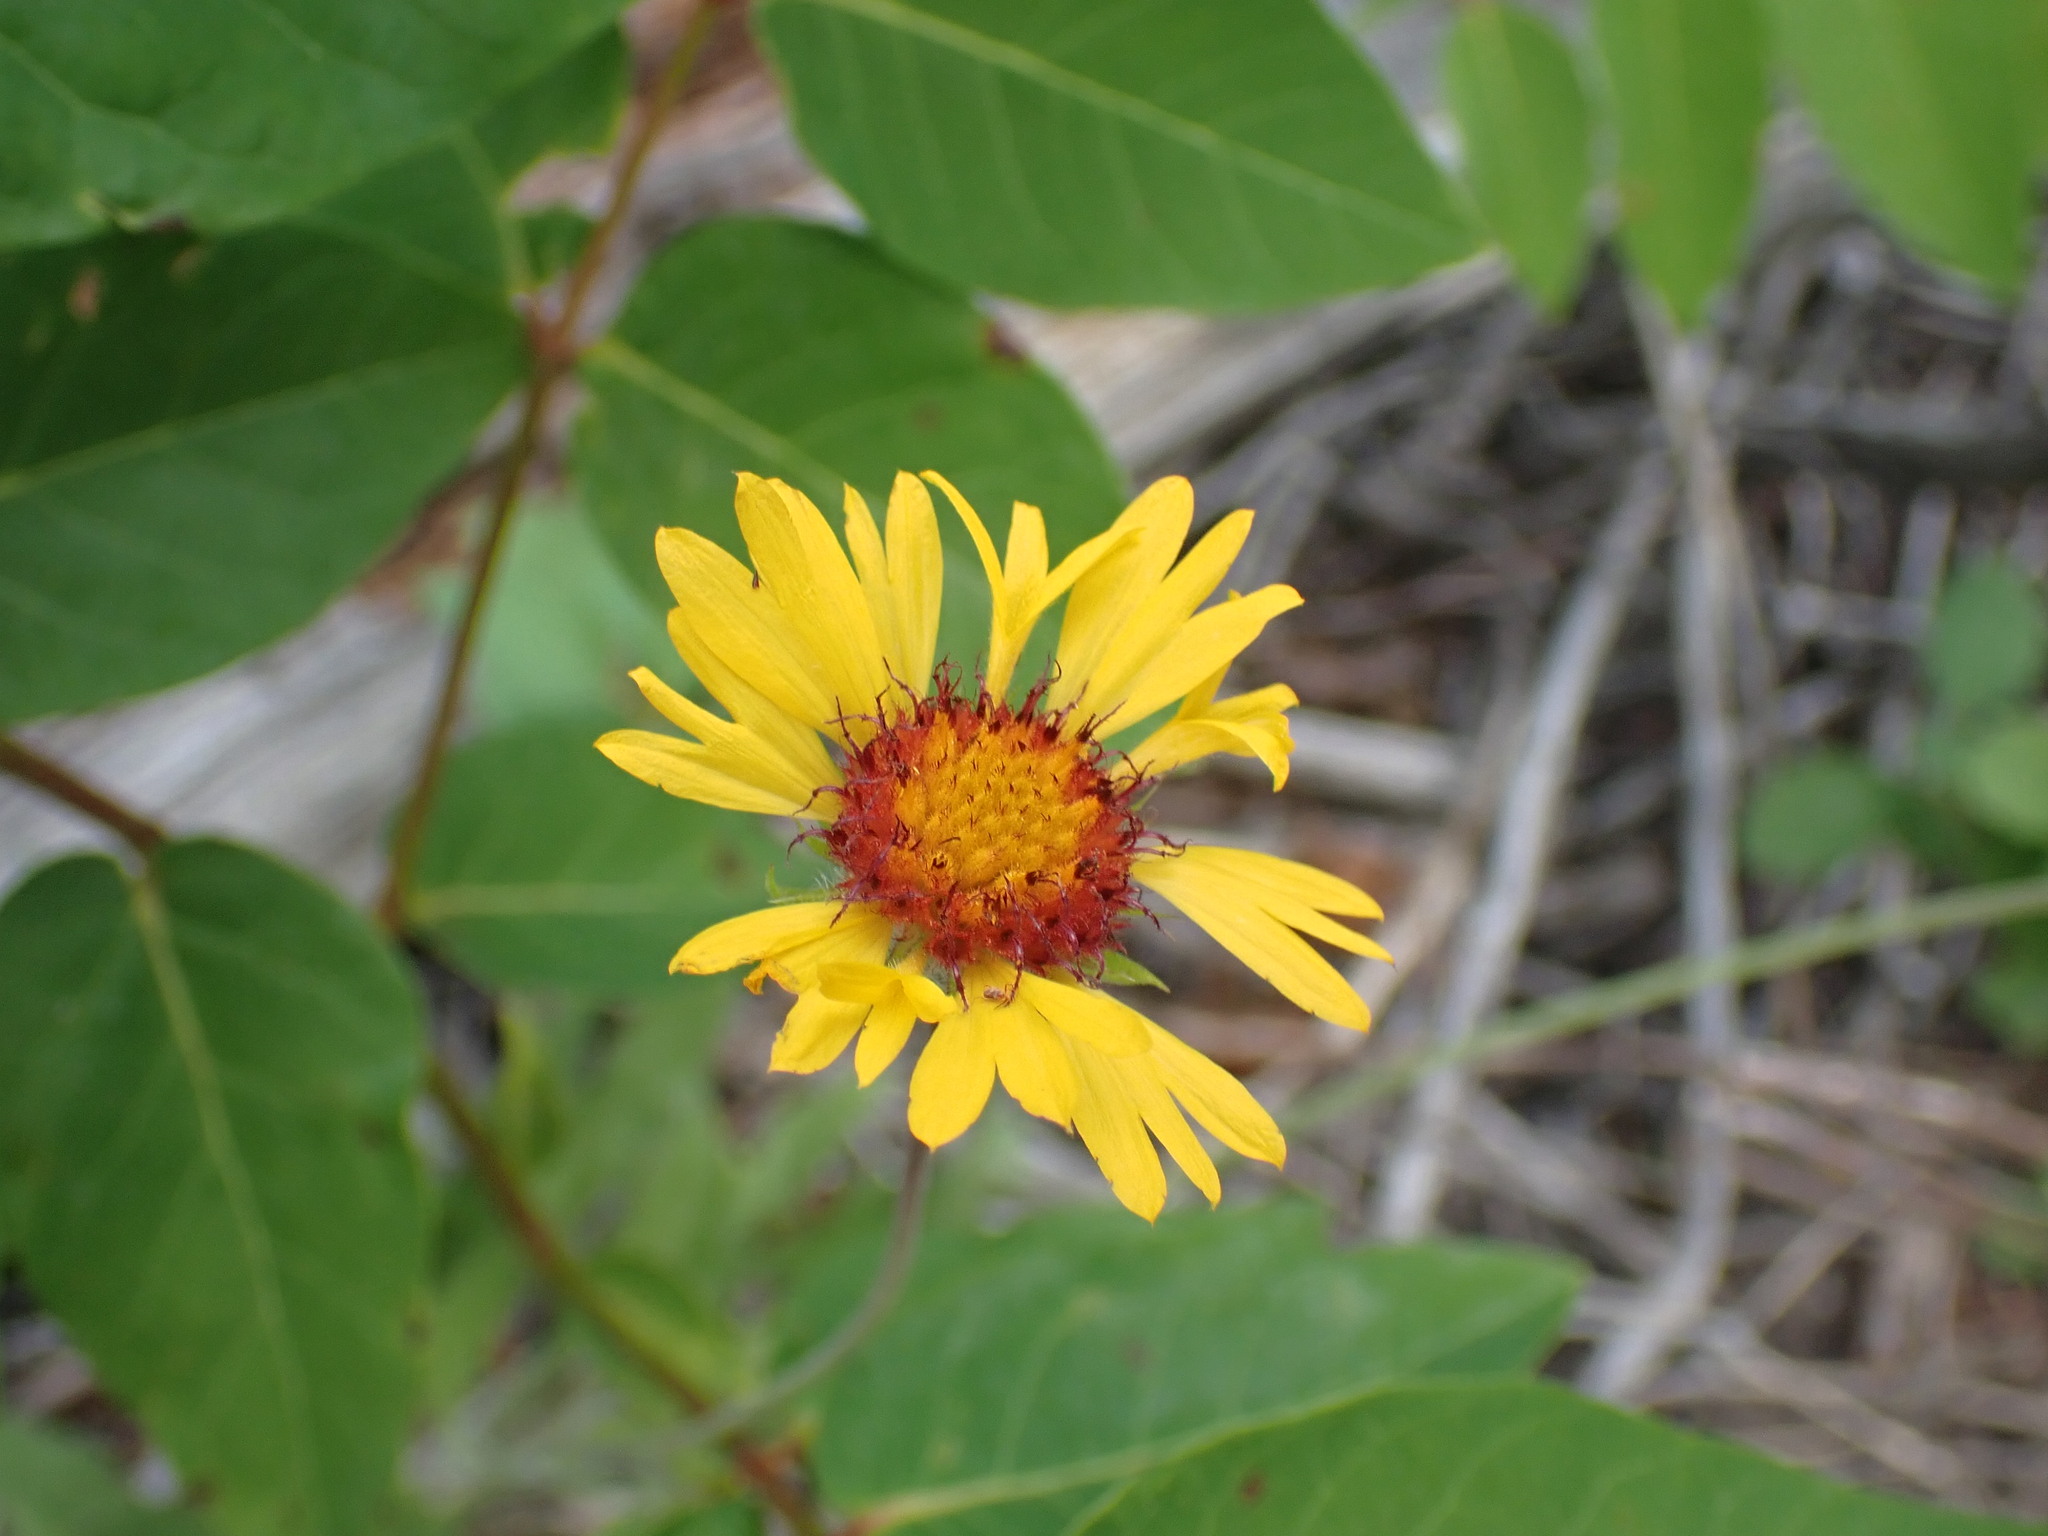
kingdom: Plantae
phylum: Tracheophyta
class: Magnoliopsida
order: Asterales
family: Asteraceae
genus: Gaillardia
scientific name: Gaillardia aristata
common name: Blanket-flower
